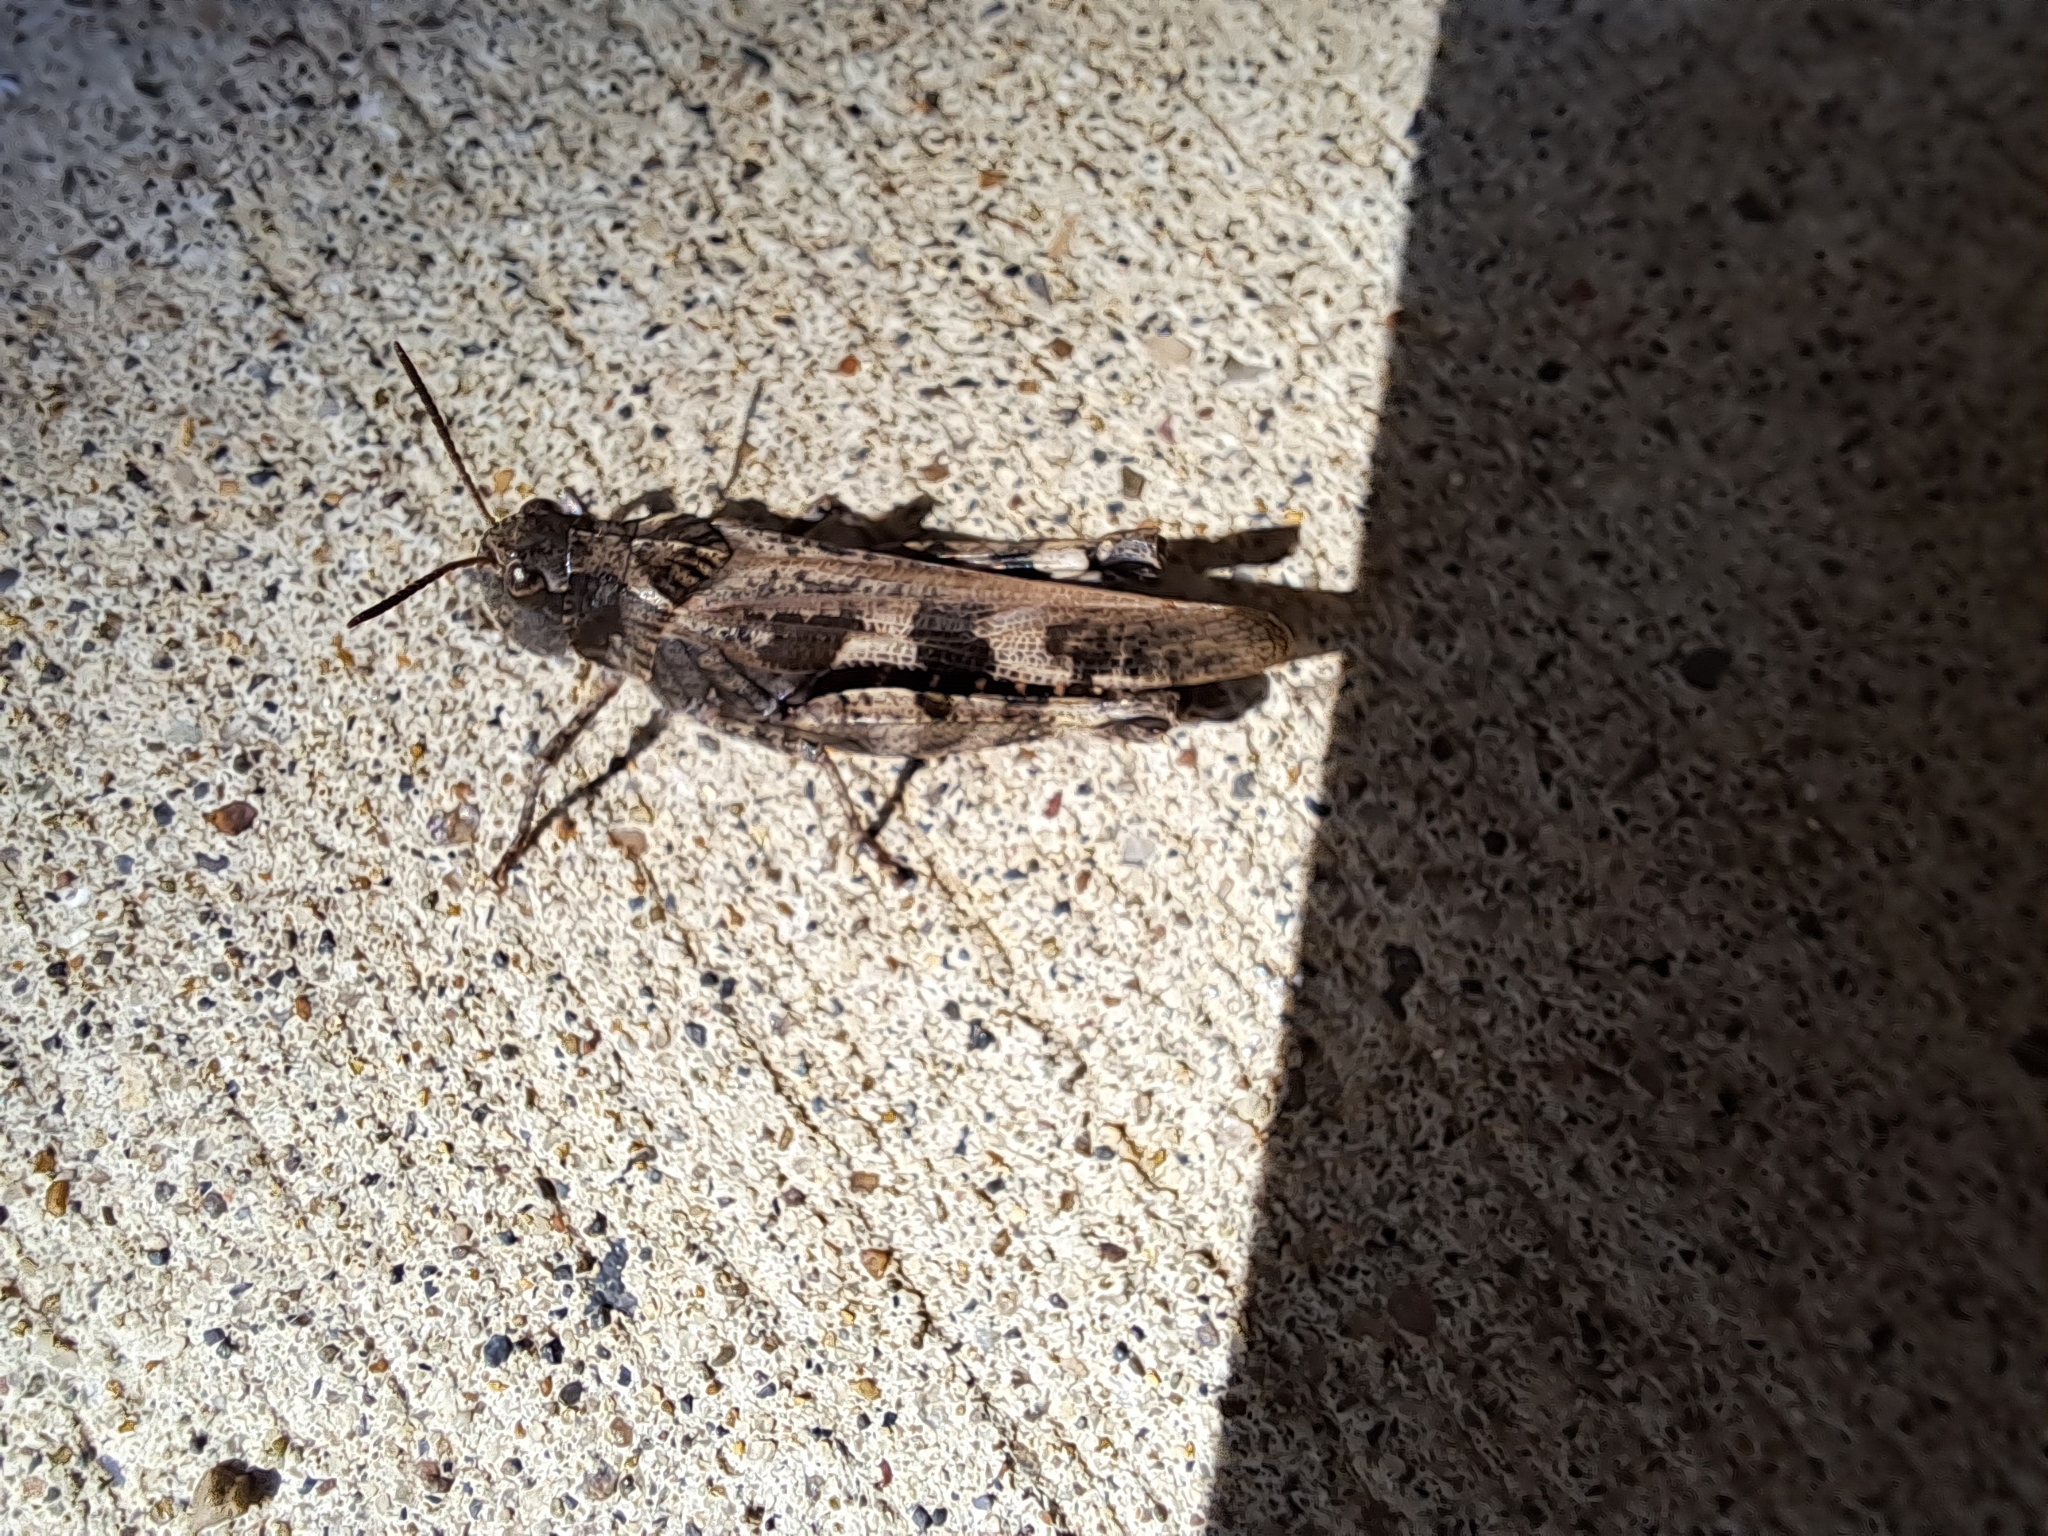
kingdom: Animalia
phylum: Arthropoda
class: Insecta
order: Orthoptera
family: Acrididae
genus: Encoptolophus
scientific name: Encoptolophus costalis
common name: Dusky grasshopper
